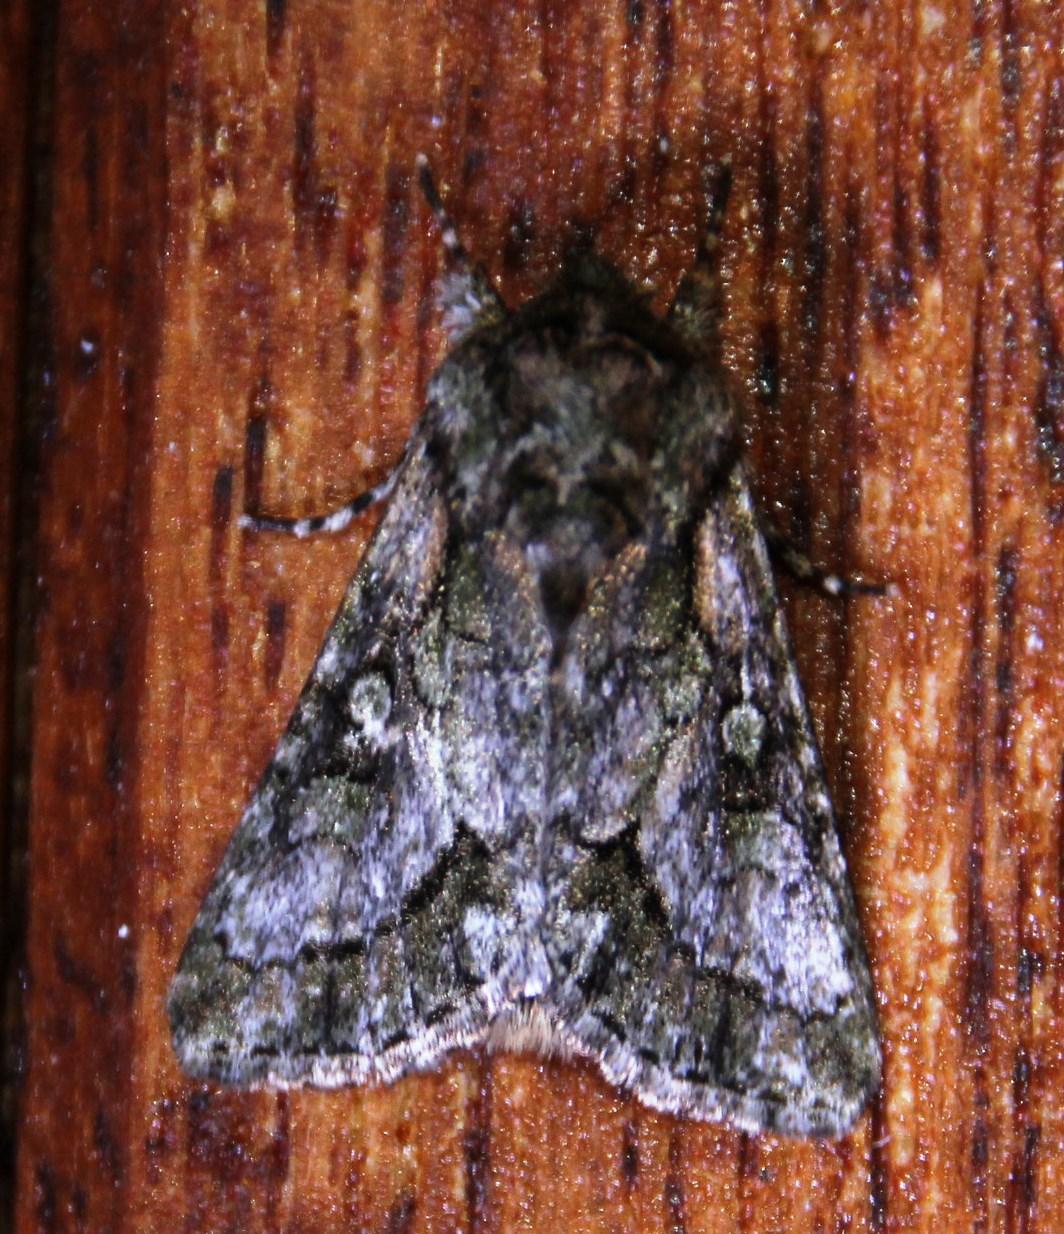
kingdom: Animalia
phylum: Arthropoda
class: Insecta
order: Lepidoptera
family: Noctuidae
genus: Acronicta
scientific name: Acronicta transvalica
